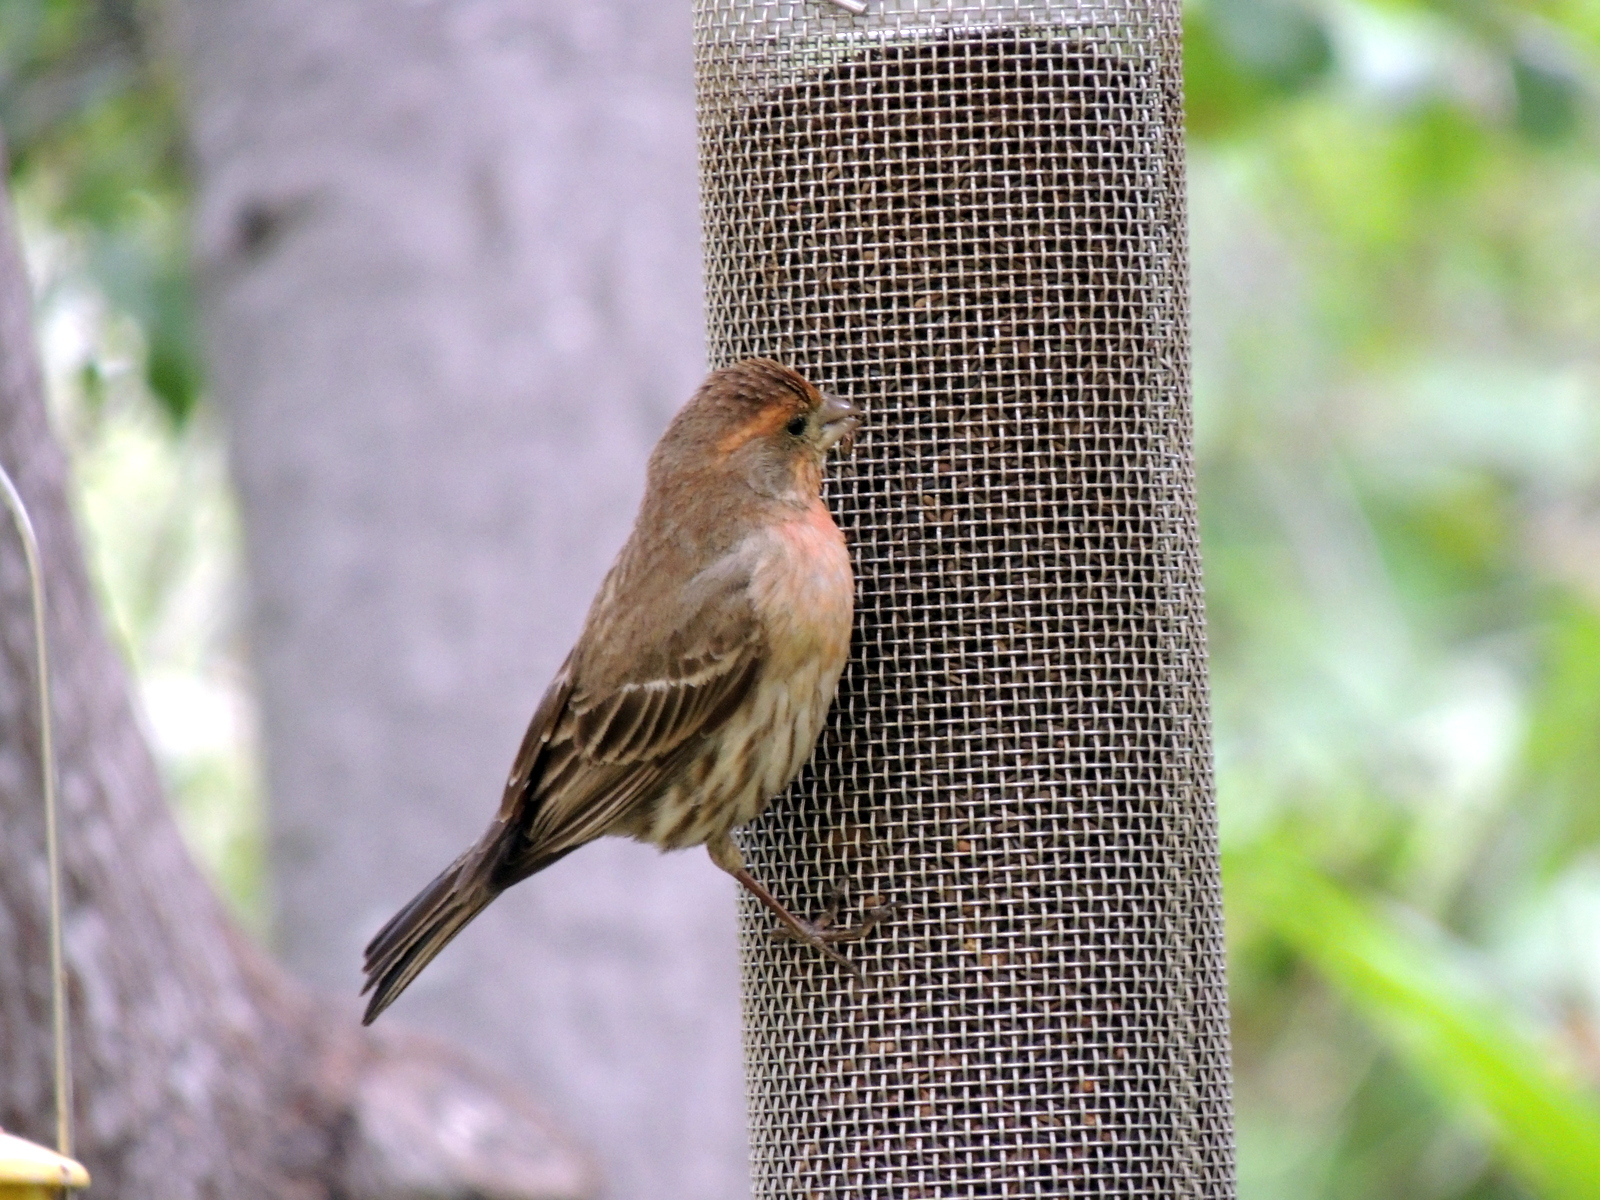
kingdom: Animalia
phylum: Chordata
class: Aves
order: Passeriformes
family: Fringillidae
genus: Haemorhous
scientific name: Haemorhous mexicanus
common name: House finch
